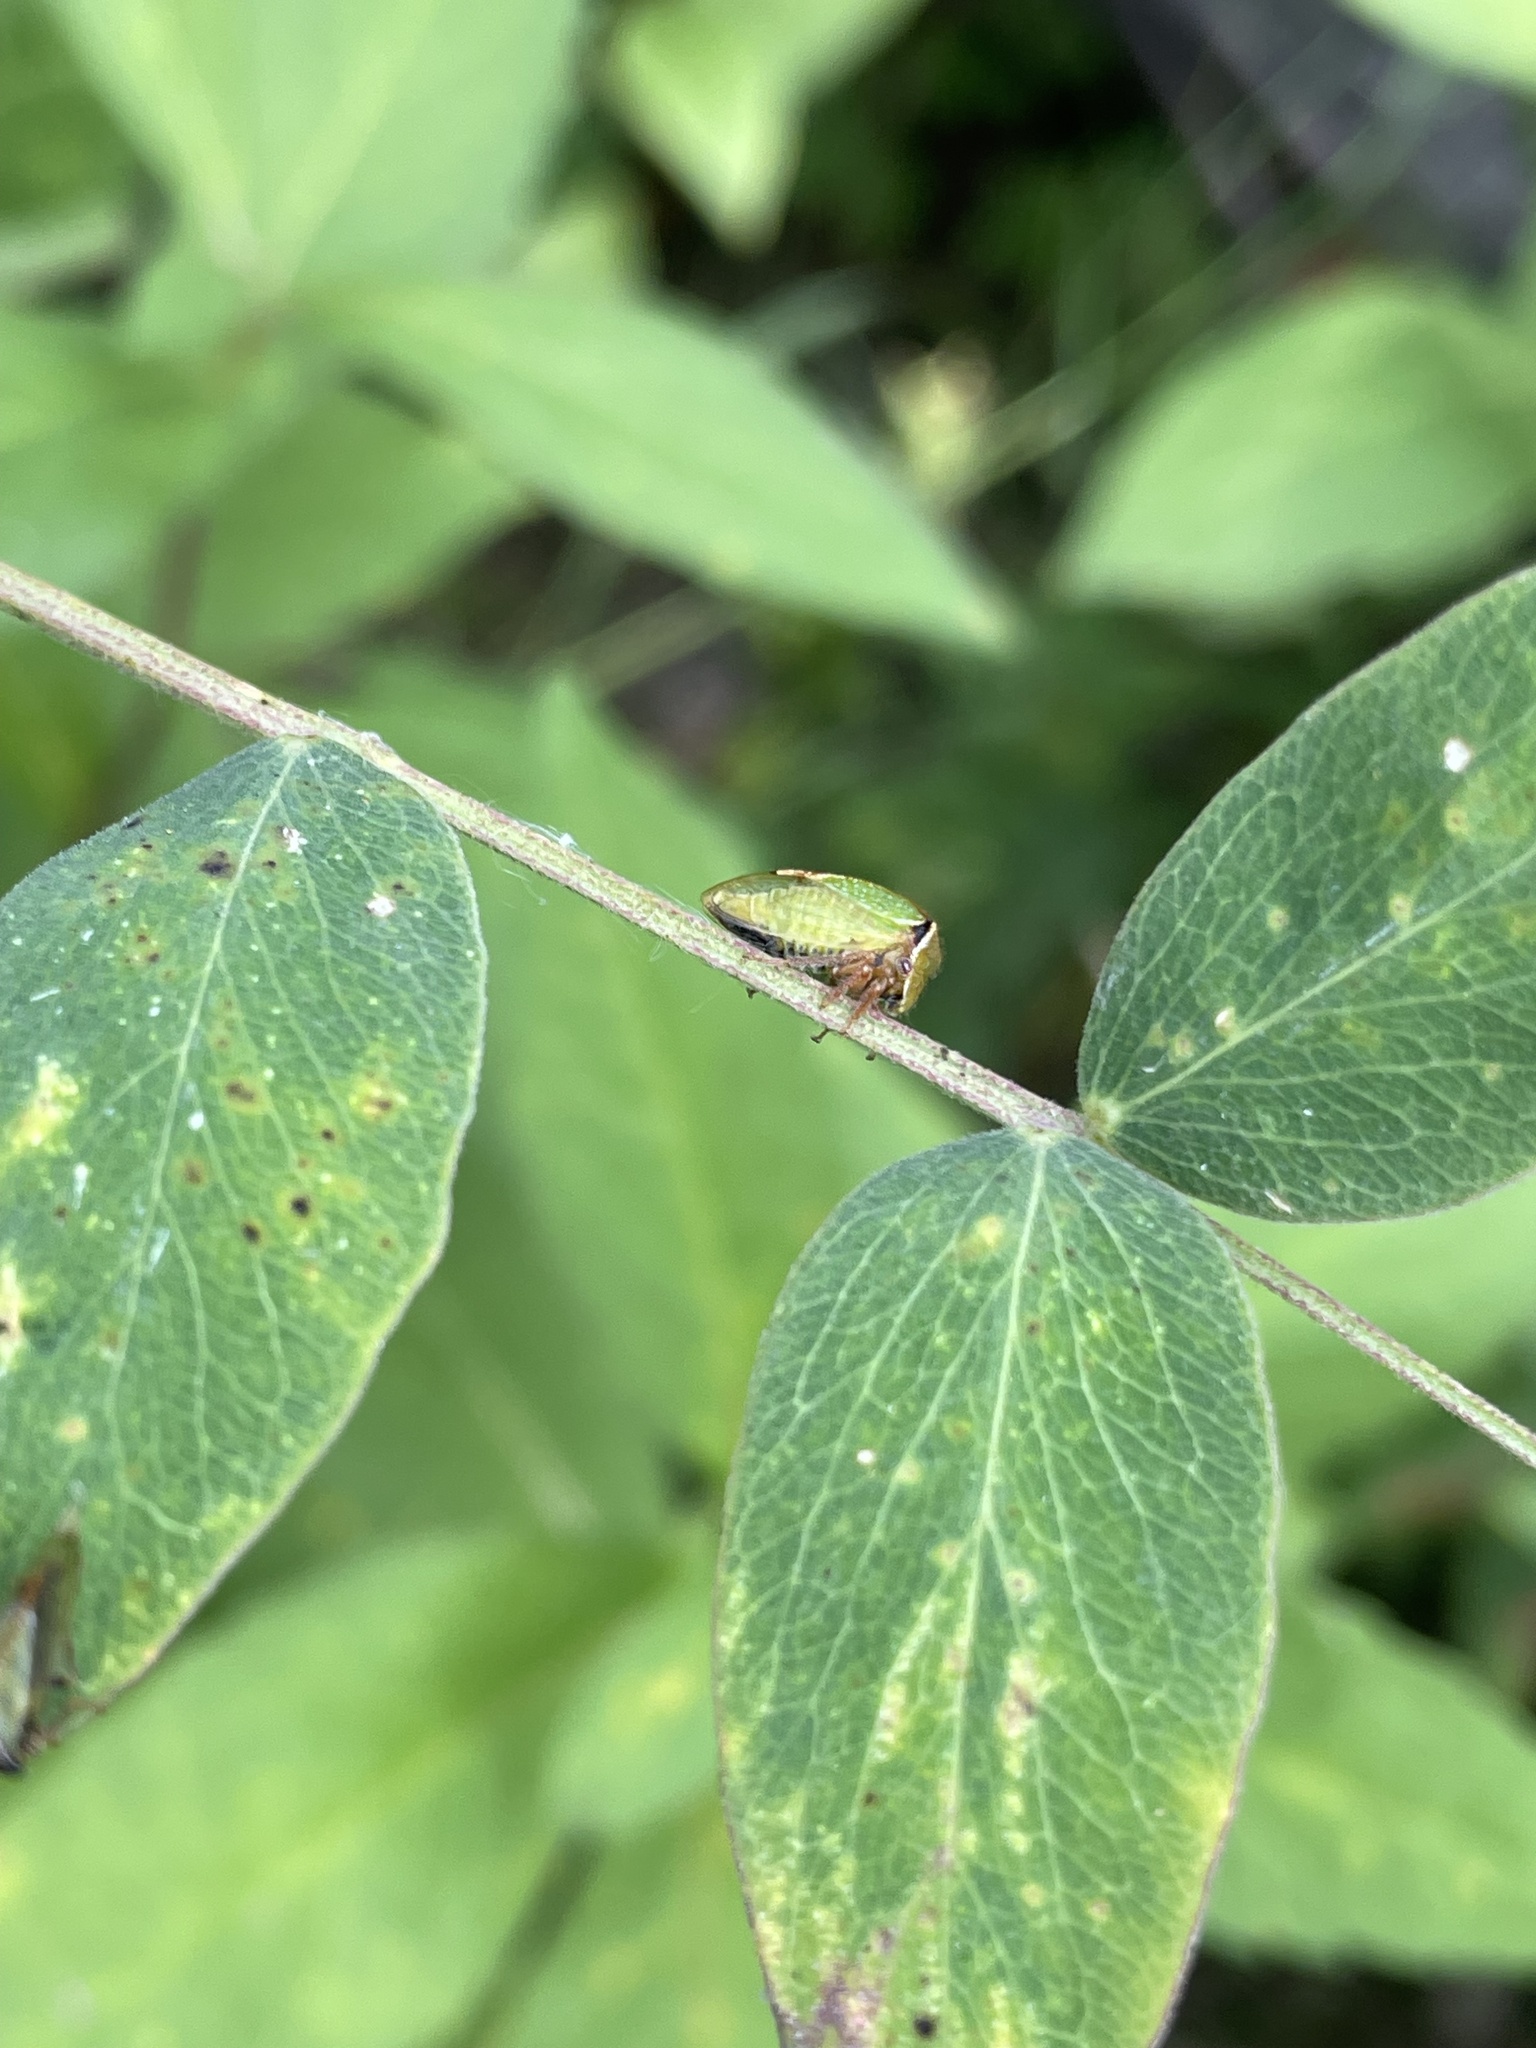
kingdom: Animalia
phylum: Arthropoda
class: Insecta
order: Hemiptera
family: Membracidae
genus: Stictocephala
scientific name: Stictocephala basalis
